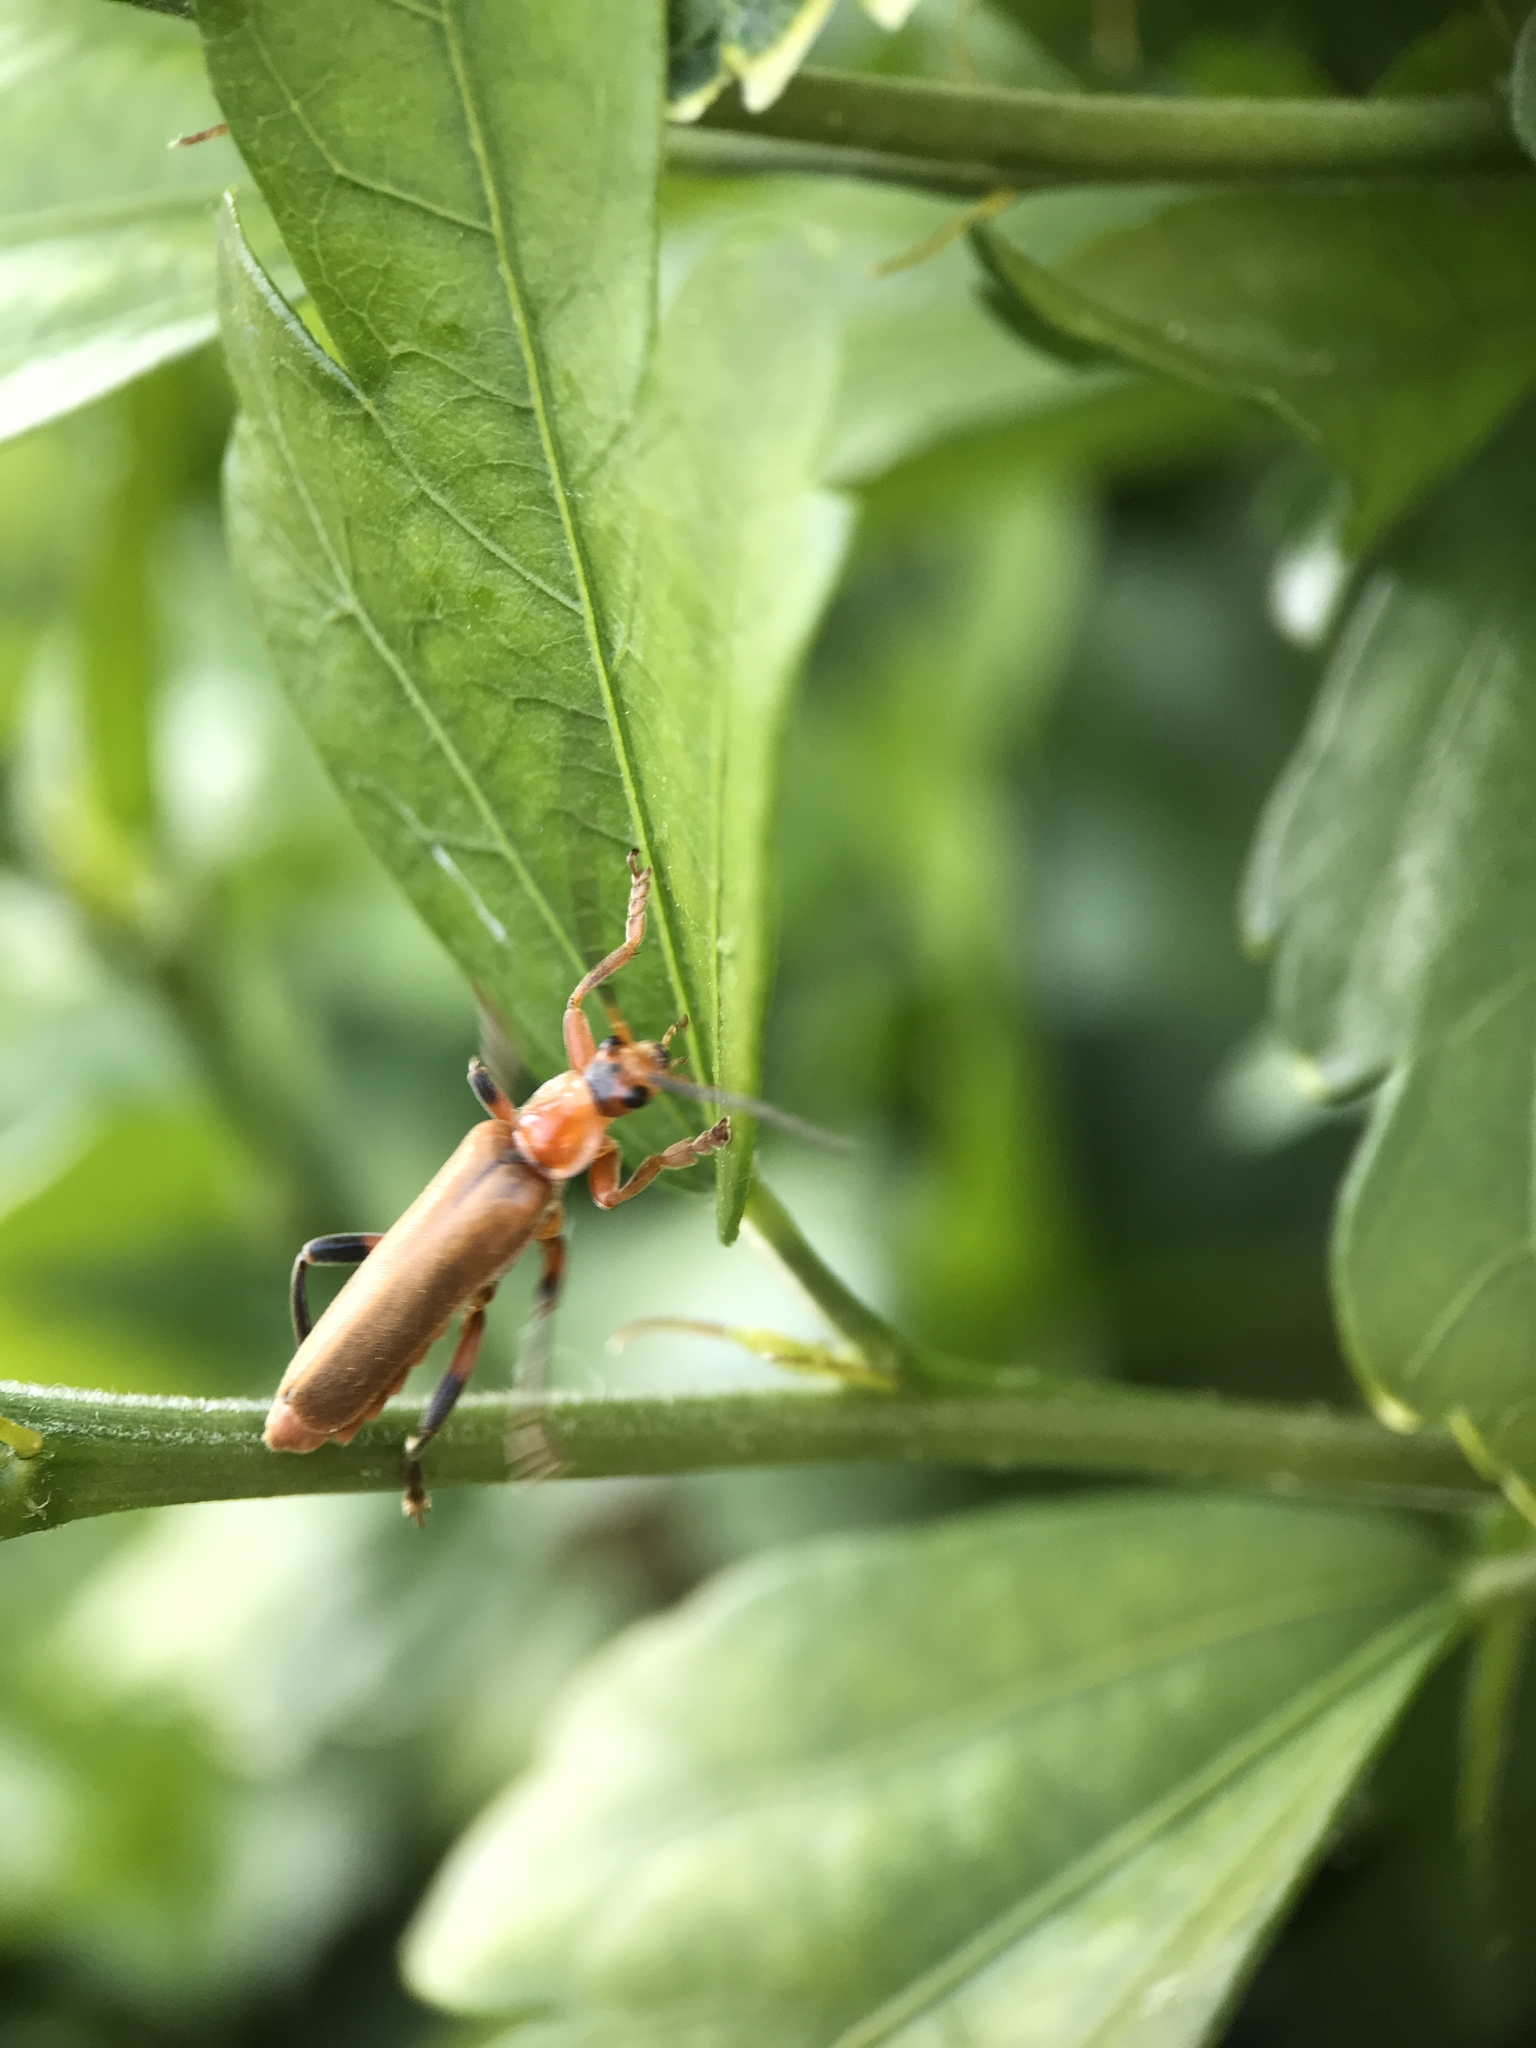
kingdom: Animalia
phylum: Arthropoda
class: Insecta
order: Coleoptera
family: Cantharidae
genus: Cantharis
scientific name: Cantharis livida
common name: Livid soldier beetle
